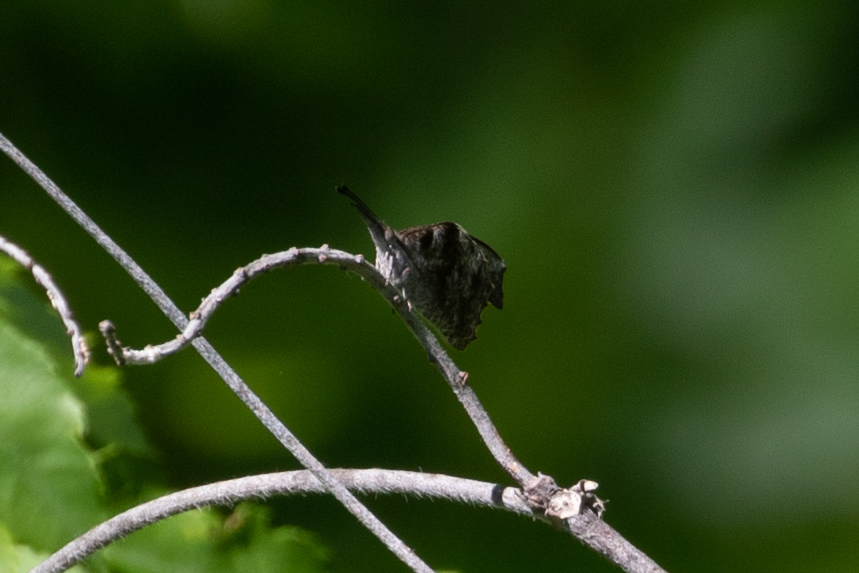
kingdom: Animalia
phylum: Arthropoda
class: Insecta
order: Lepidoptera
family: Nymphalidae
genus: Libytheana
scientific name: Libytheana carinenta
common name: American snout
